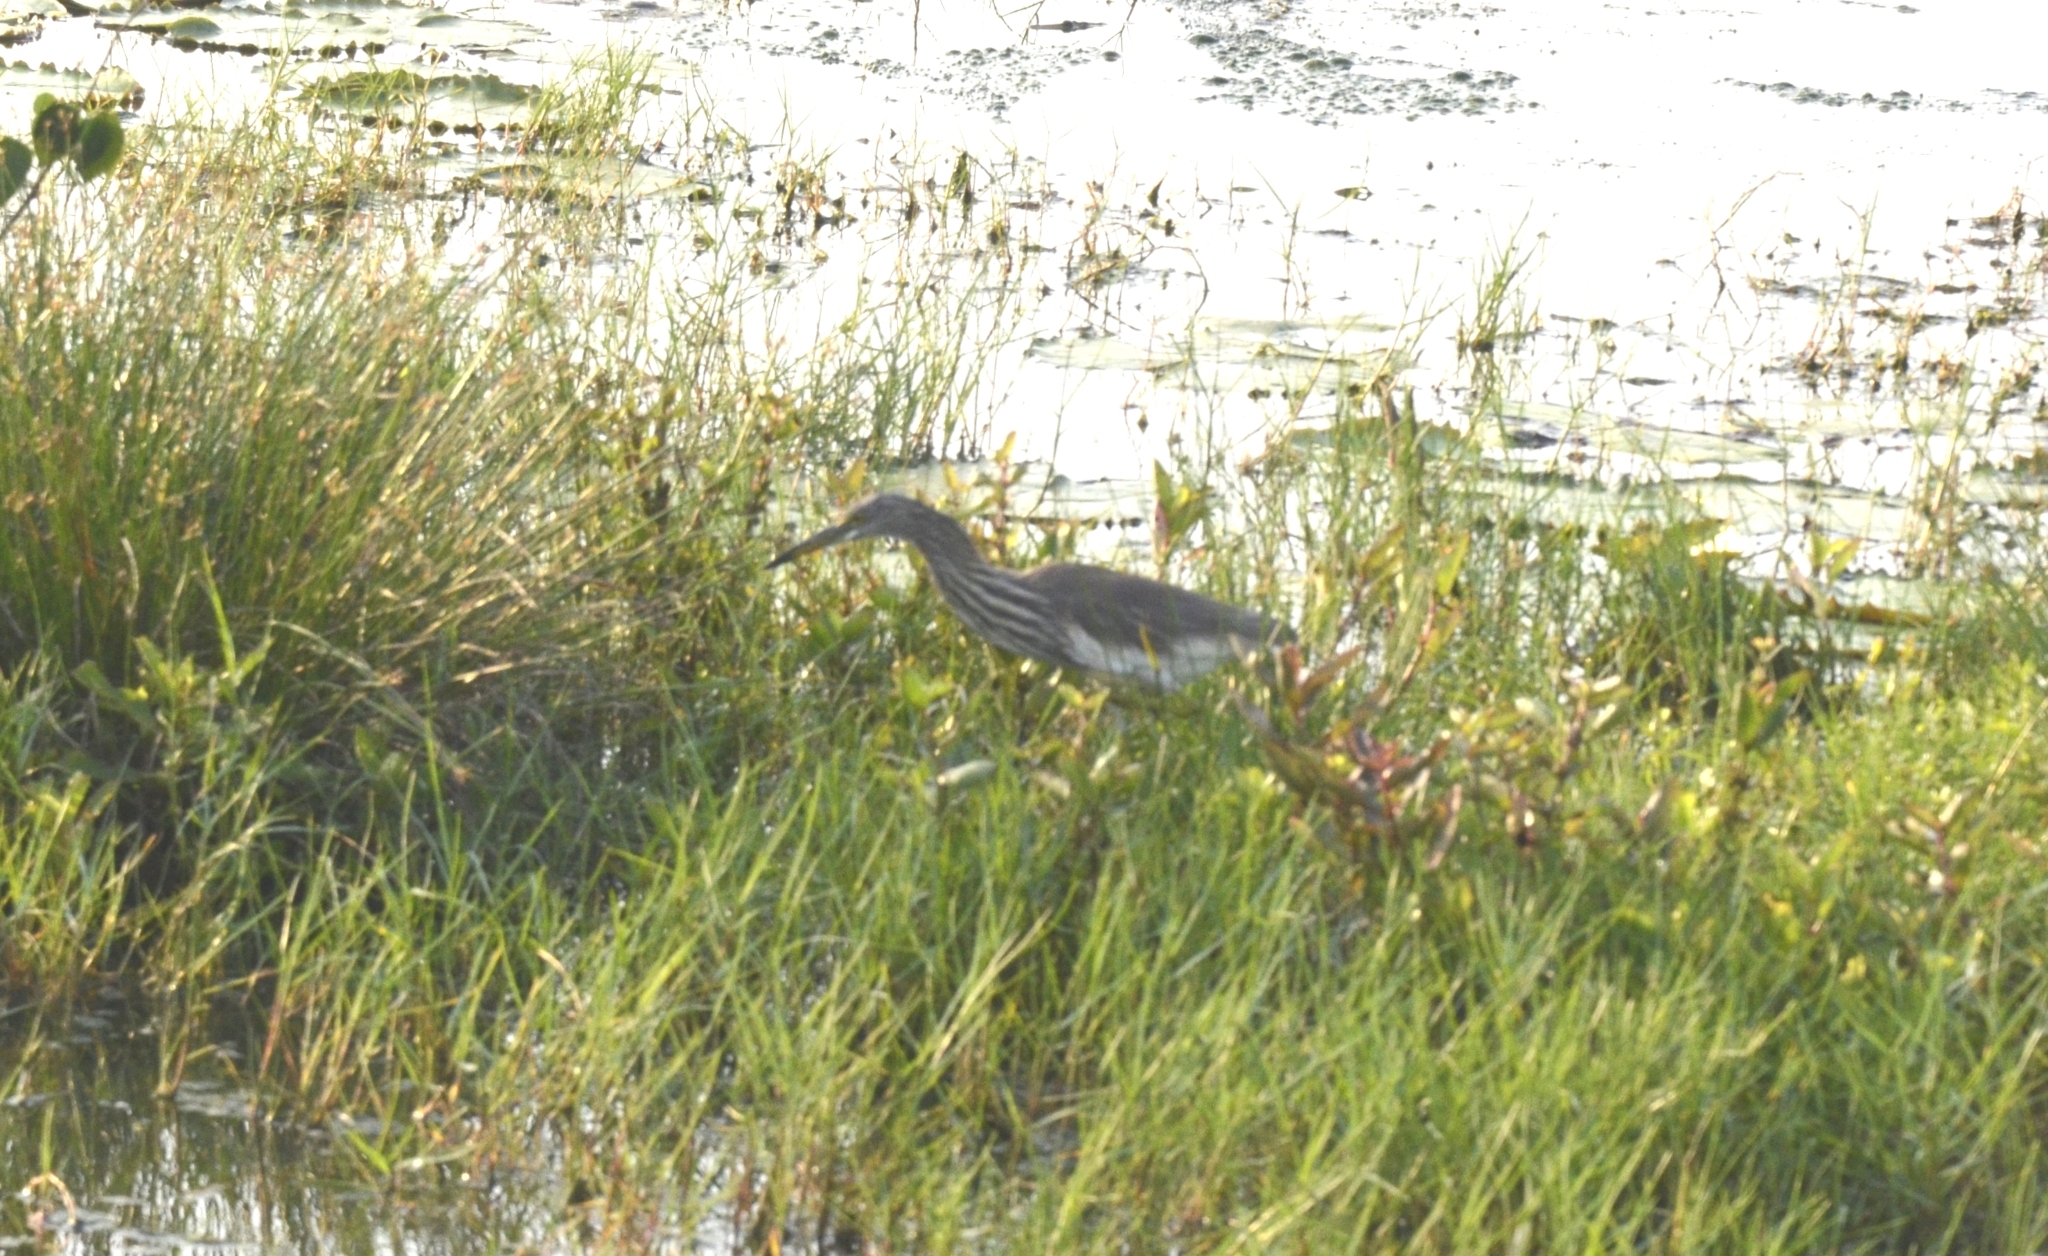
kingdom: Animalia
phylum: Chordata
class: Aves
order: Pelecaniformes
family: Ardeidae
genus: Ardeola
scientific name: Ardeola grayii
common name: Indian pond heron
